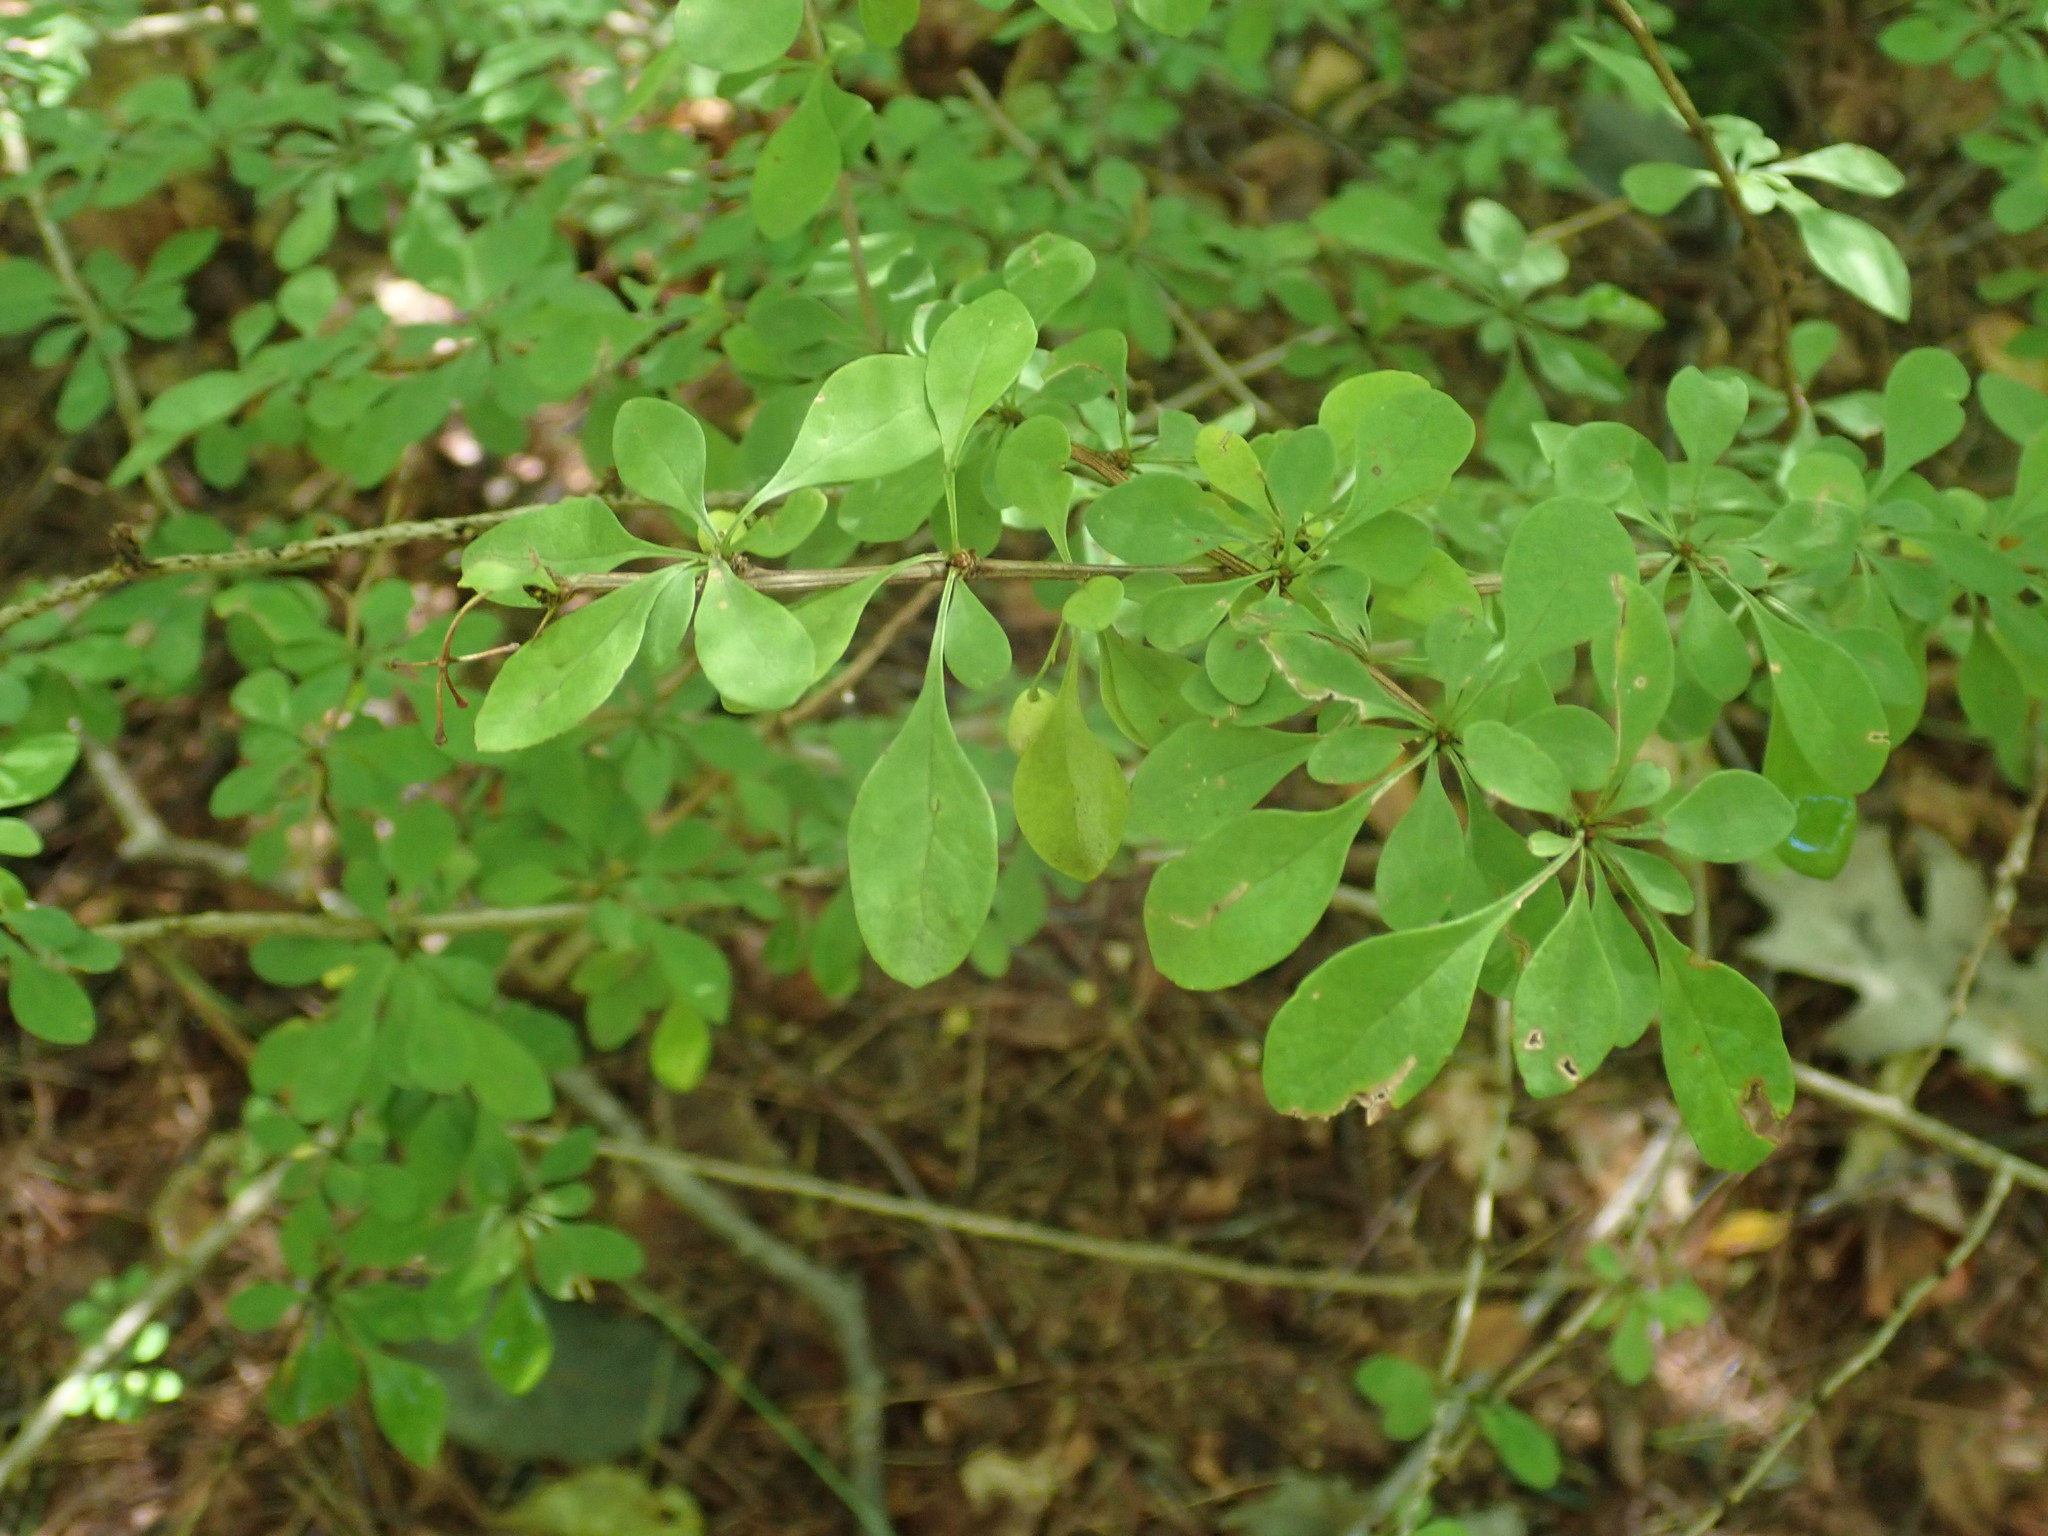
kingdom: Plantae
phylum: Tracheophyta
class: Magnoliopsida
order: Ranunculales
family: Berberidaceae
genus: Berberis
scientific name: Berberis thunbergii
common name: Japanese barberry
